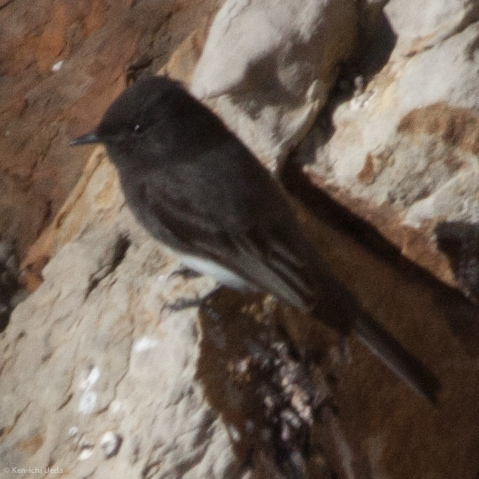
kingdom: Animalia
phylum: Chordata
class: Aves
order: Passeriformes
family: Tyrannidae
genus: Sayornis
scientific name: Sayornis nigricans
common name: Black phoebe
